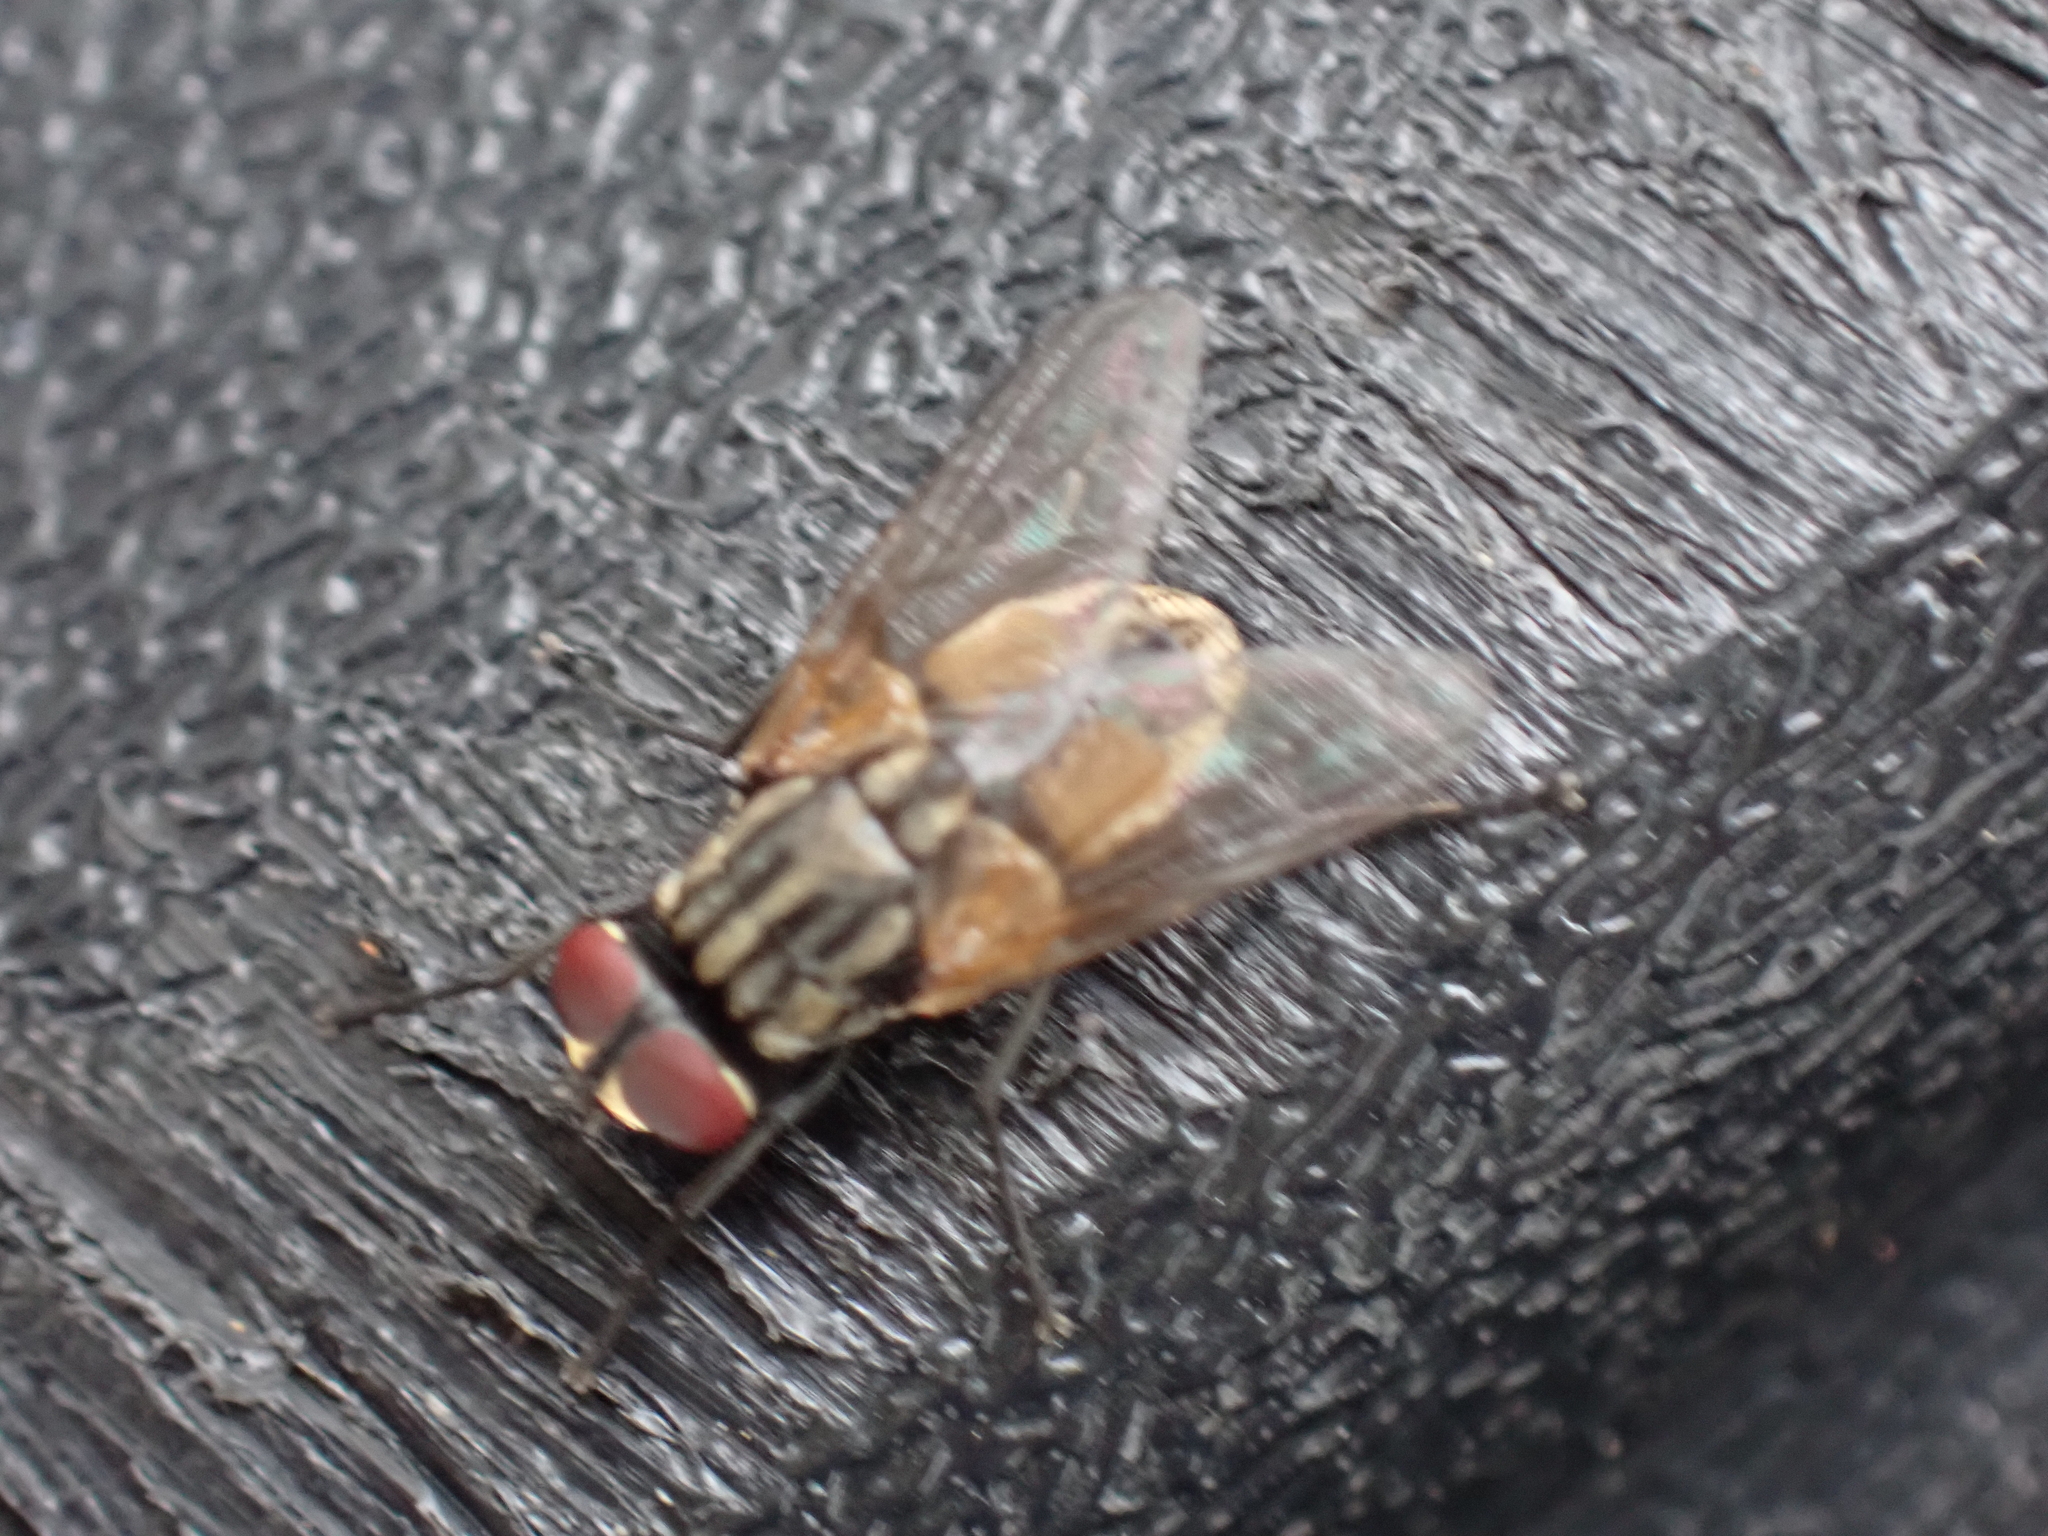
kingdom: Animalia
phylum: Arthropoda
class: Insecta
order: Diptera
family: Muscidae
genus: Musca
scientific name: Musca domestica
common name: House fly
